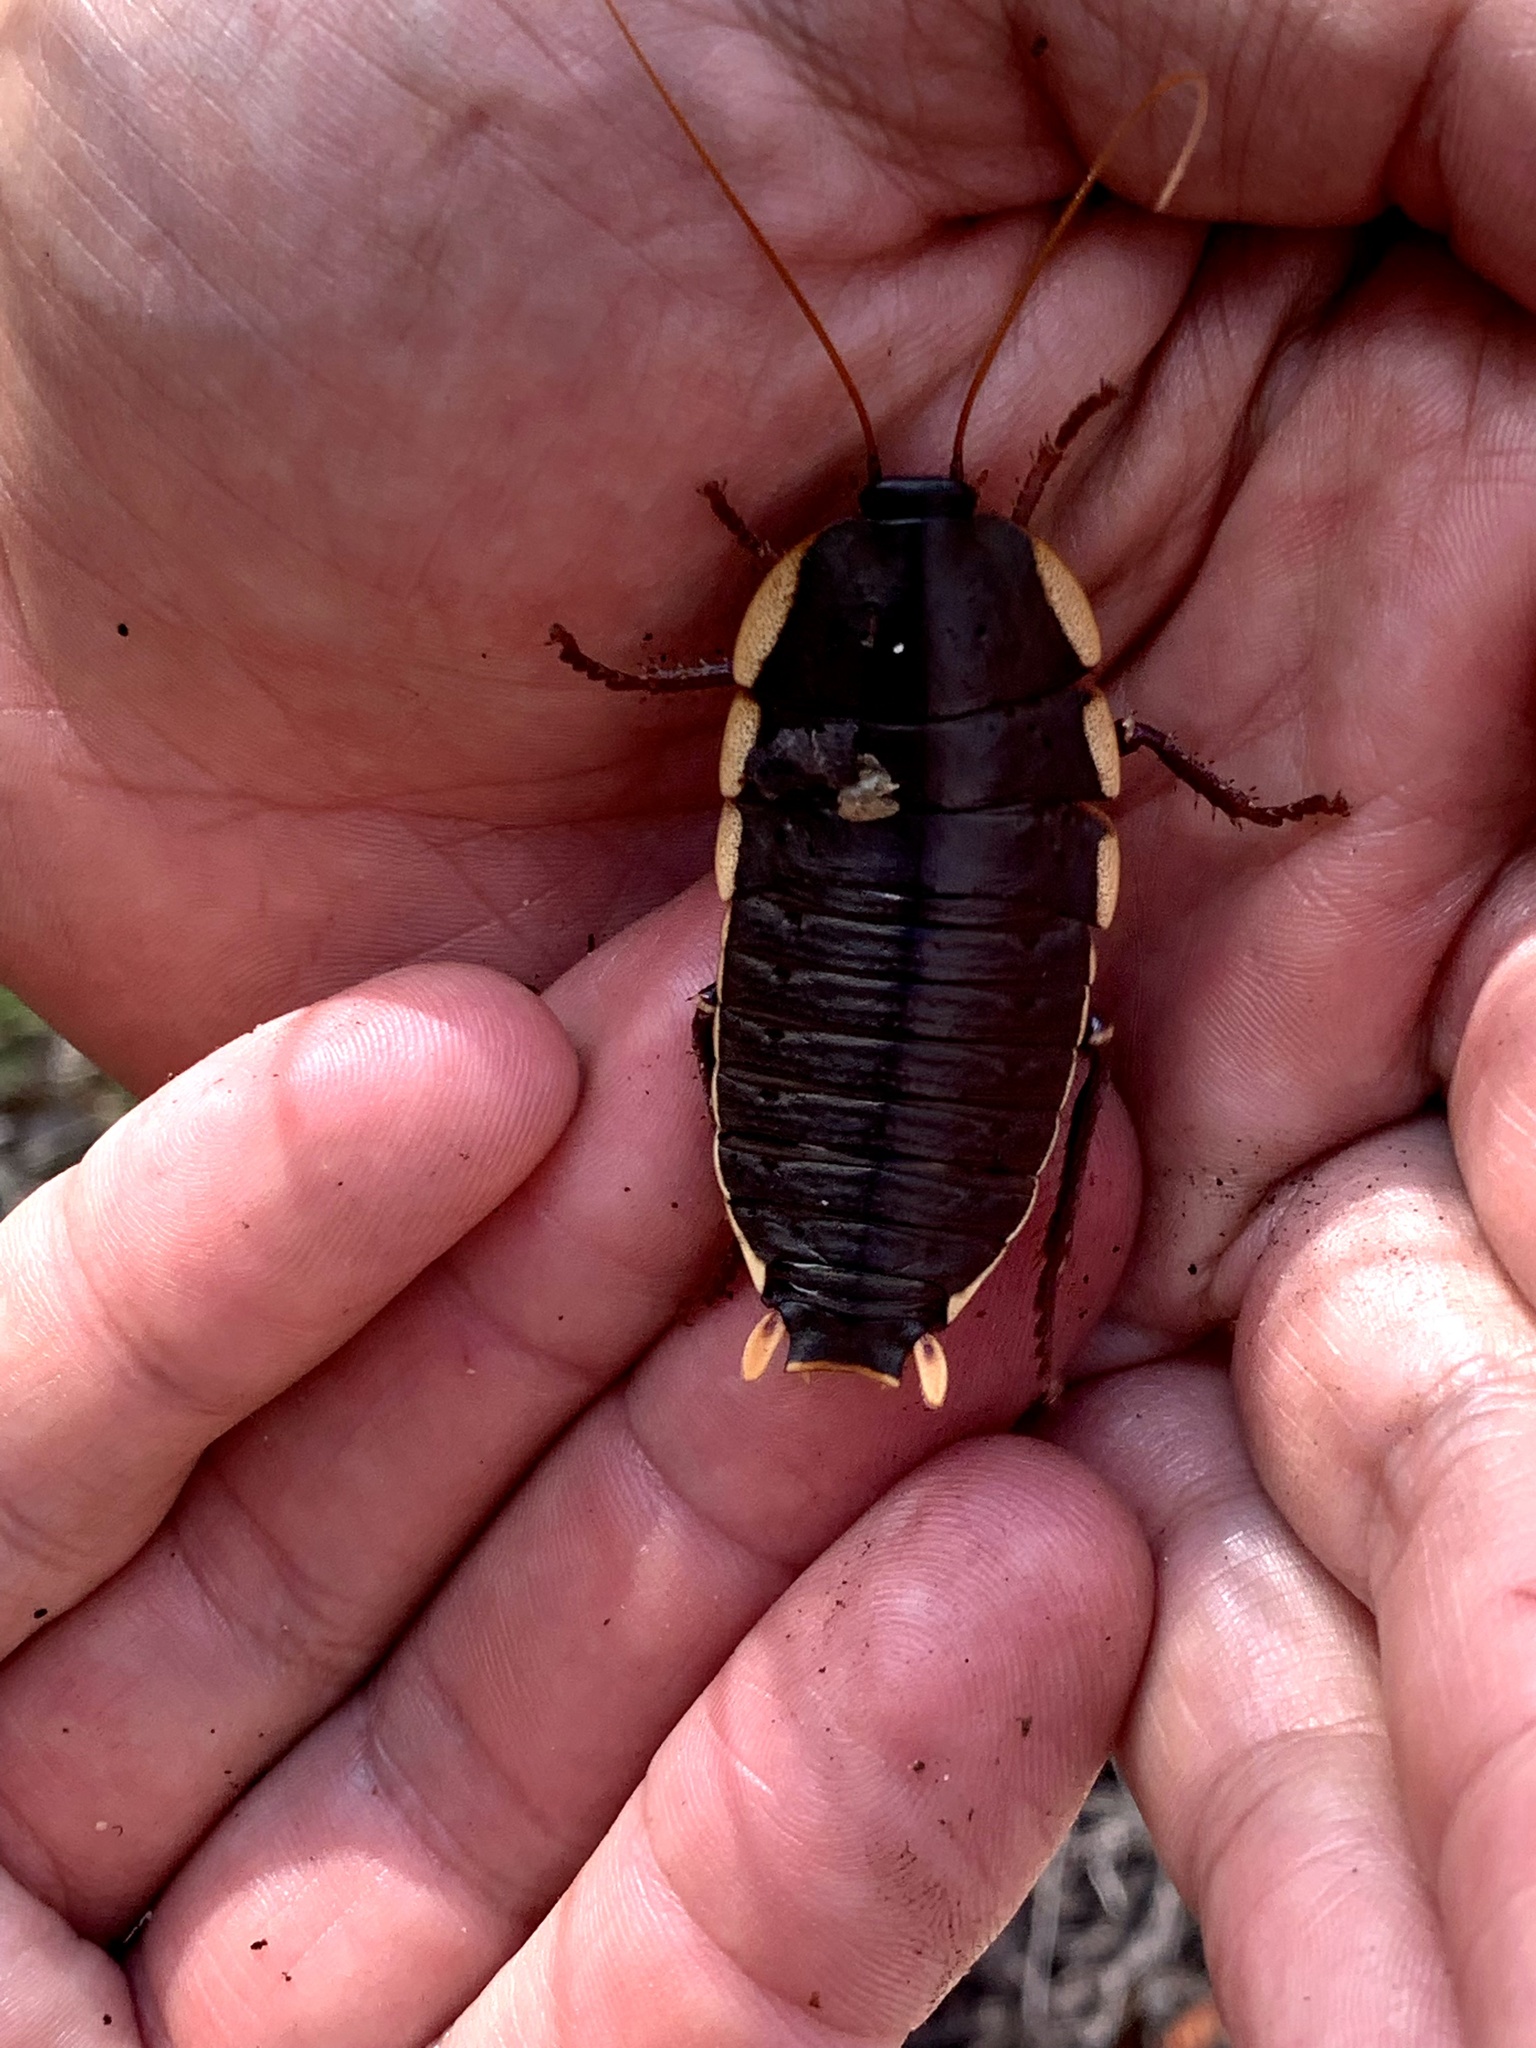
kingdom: Animalia
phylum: Arthropoda
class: Insecta
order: Blattodea
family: Blattidae
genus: Polyzosteria
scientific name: Polyzosteria limbata
